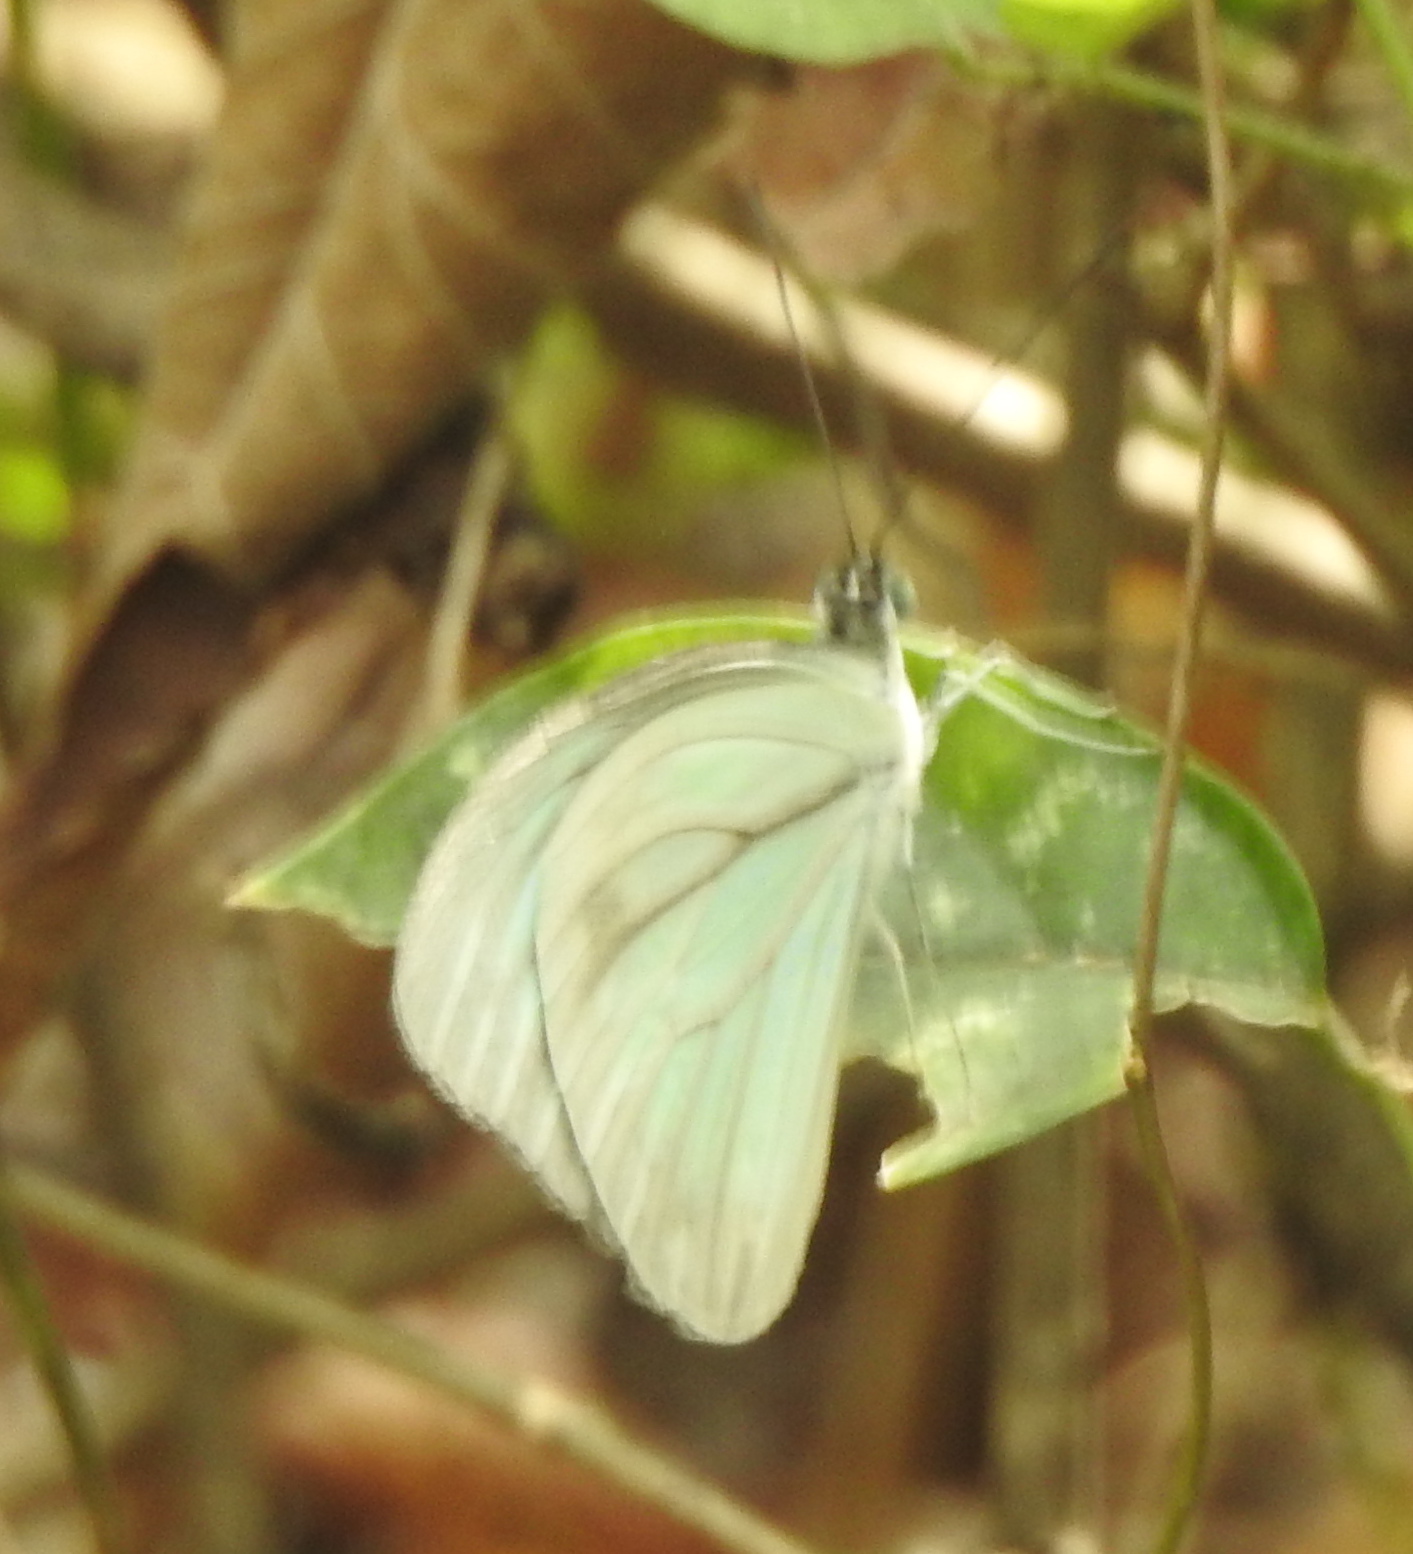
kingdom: Animalia
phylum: Arthropoda
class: Insecta
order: Lepidoptera
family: Pieridae
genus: Pareronia
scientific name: Pareronia hippia
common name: Indian wanderer
